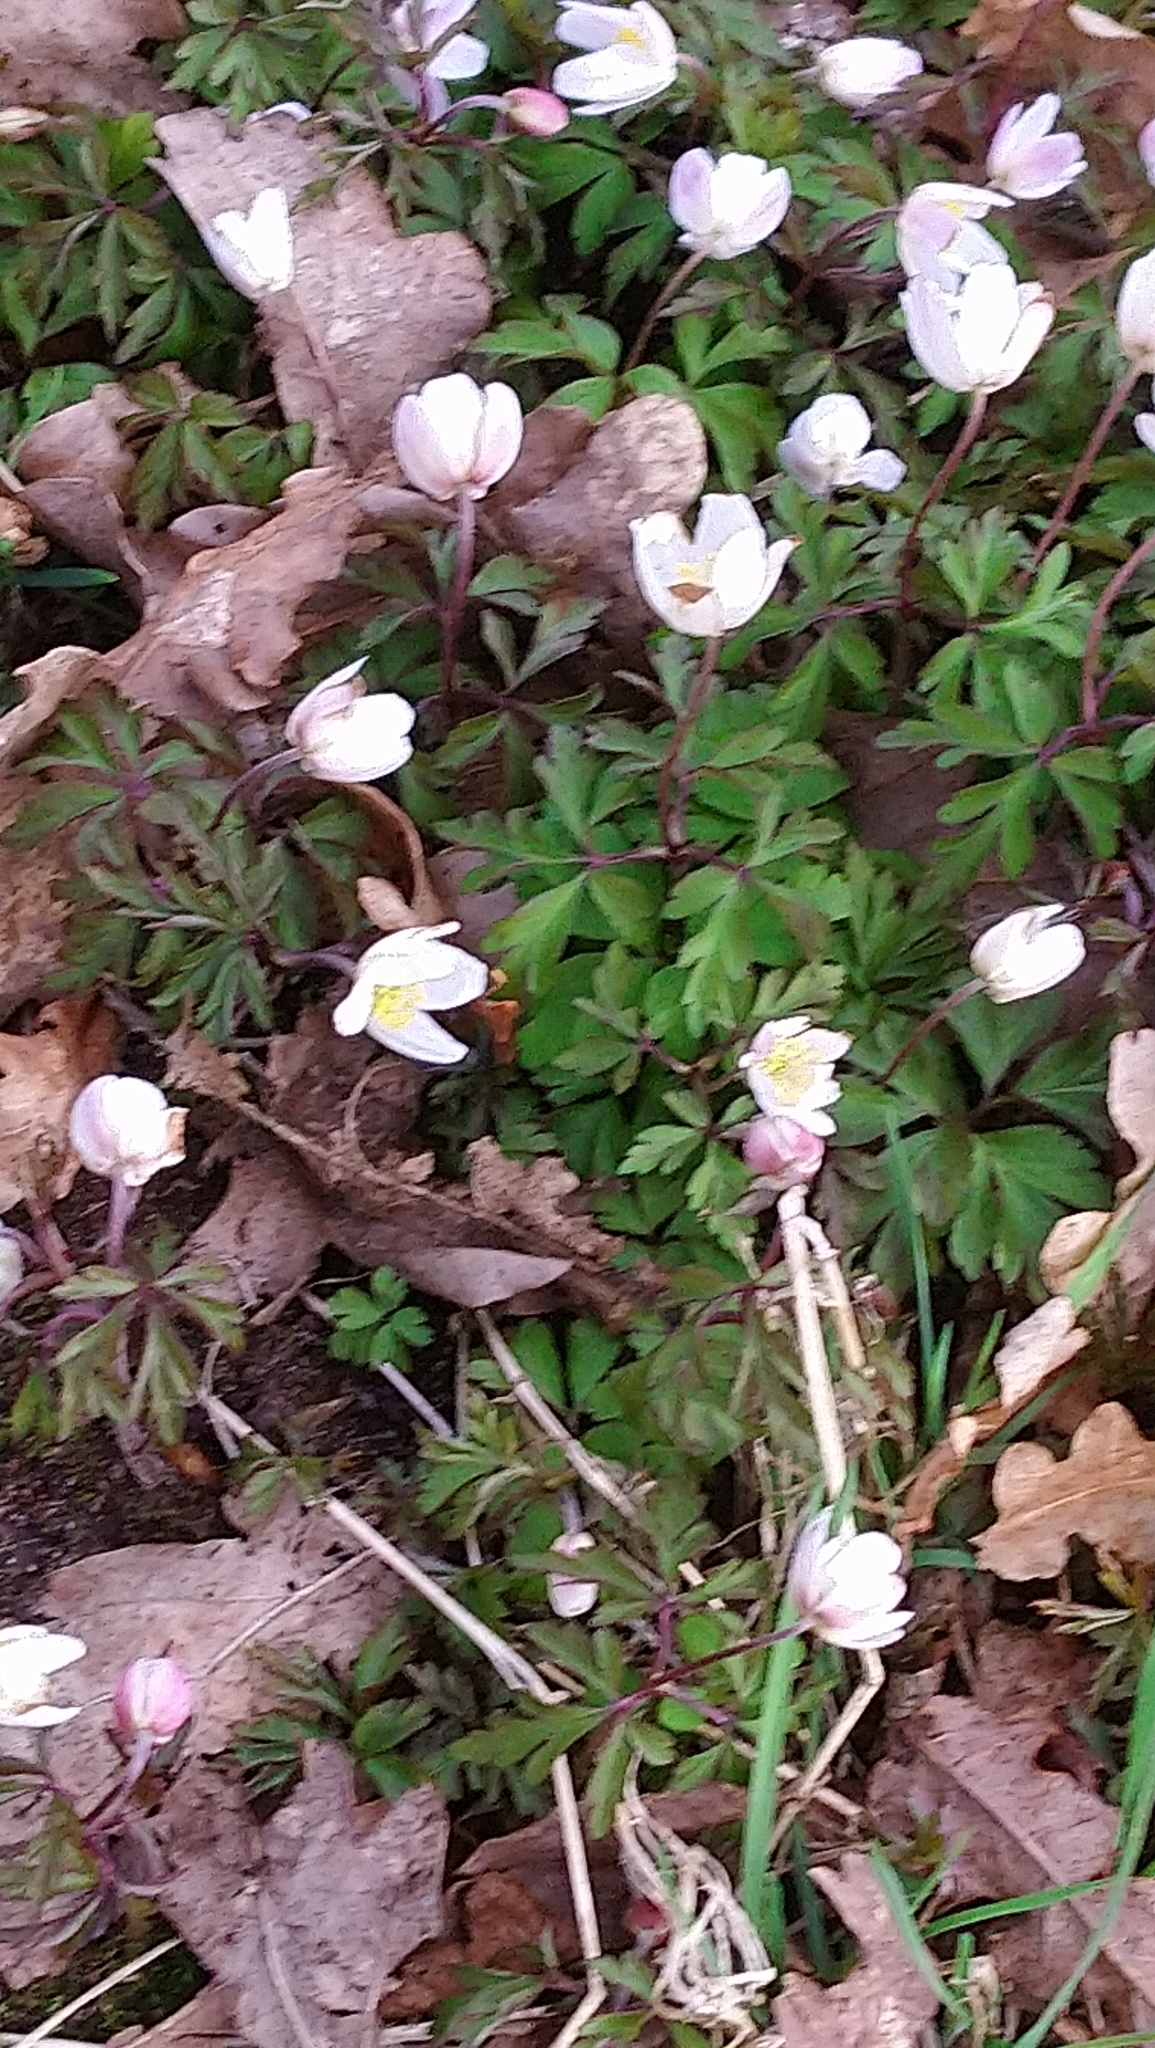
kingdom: Plantae
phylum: Tracheophyta
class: Magnoliopsida
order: Ranunculales
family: Ranunculaceae
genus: Anemone
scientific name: Anemone nemorosa
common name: Wood anemone
